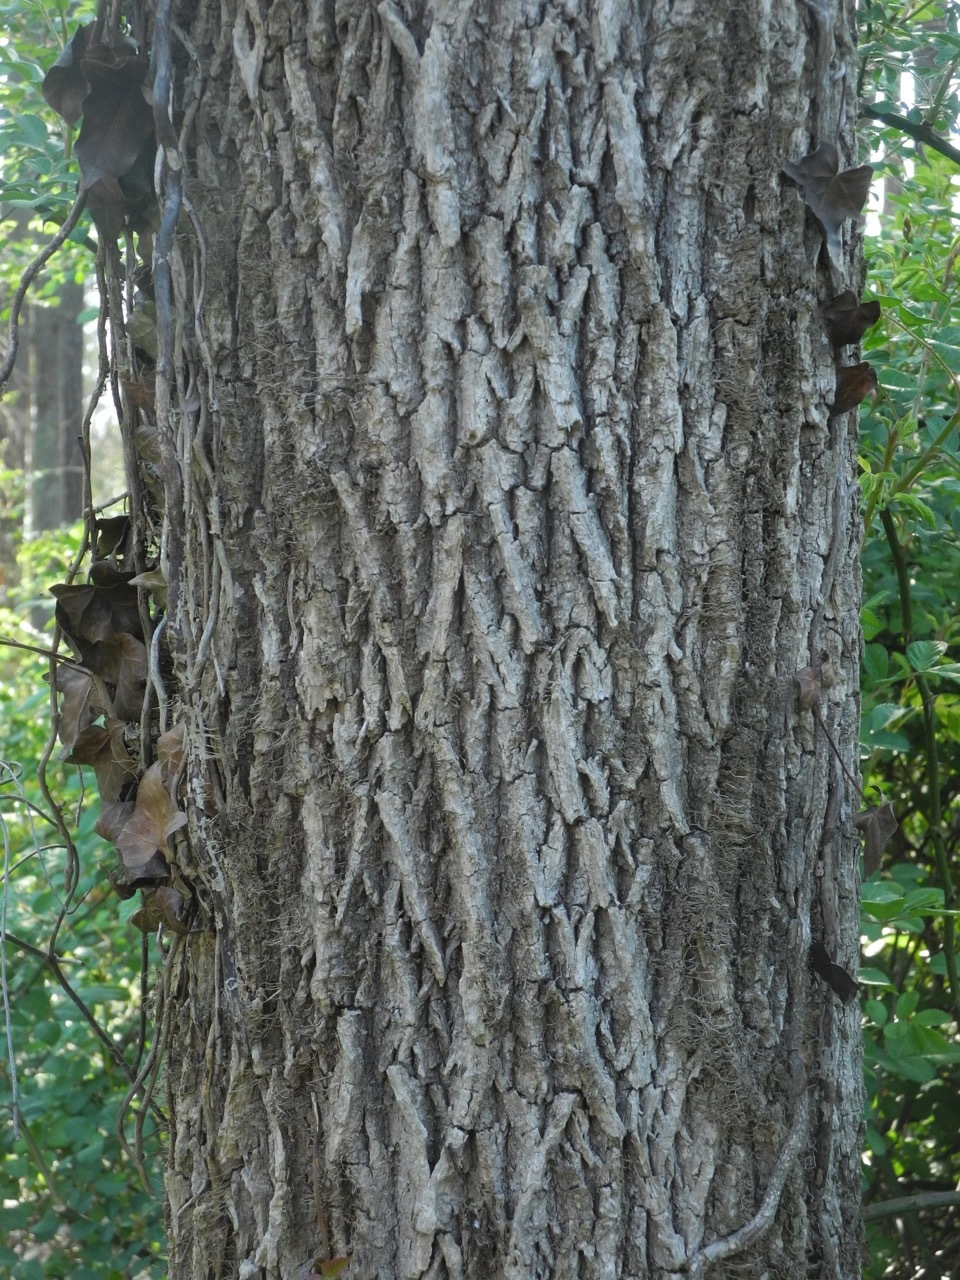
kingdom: Plantae
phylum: Tracheophyta
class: Magnoliopsida
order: Lamiales
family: Oleaceae
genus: Fraxinus
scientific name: Fraxinus americana
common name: White ash
